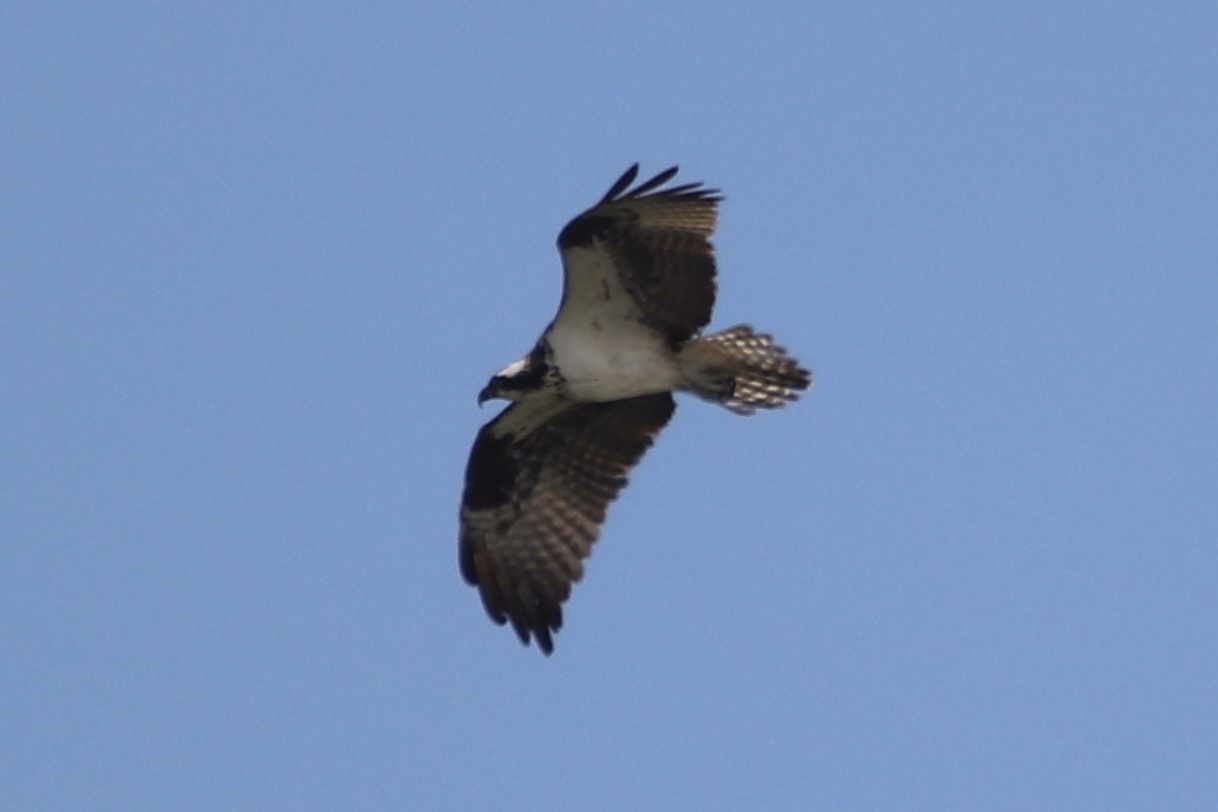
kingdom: Animalia
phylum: Chordata
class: Aves
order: Accipitriformes
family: Pandionidae
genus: Pandion
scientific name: Pandion haliaetus
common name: Osprey
